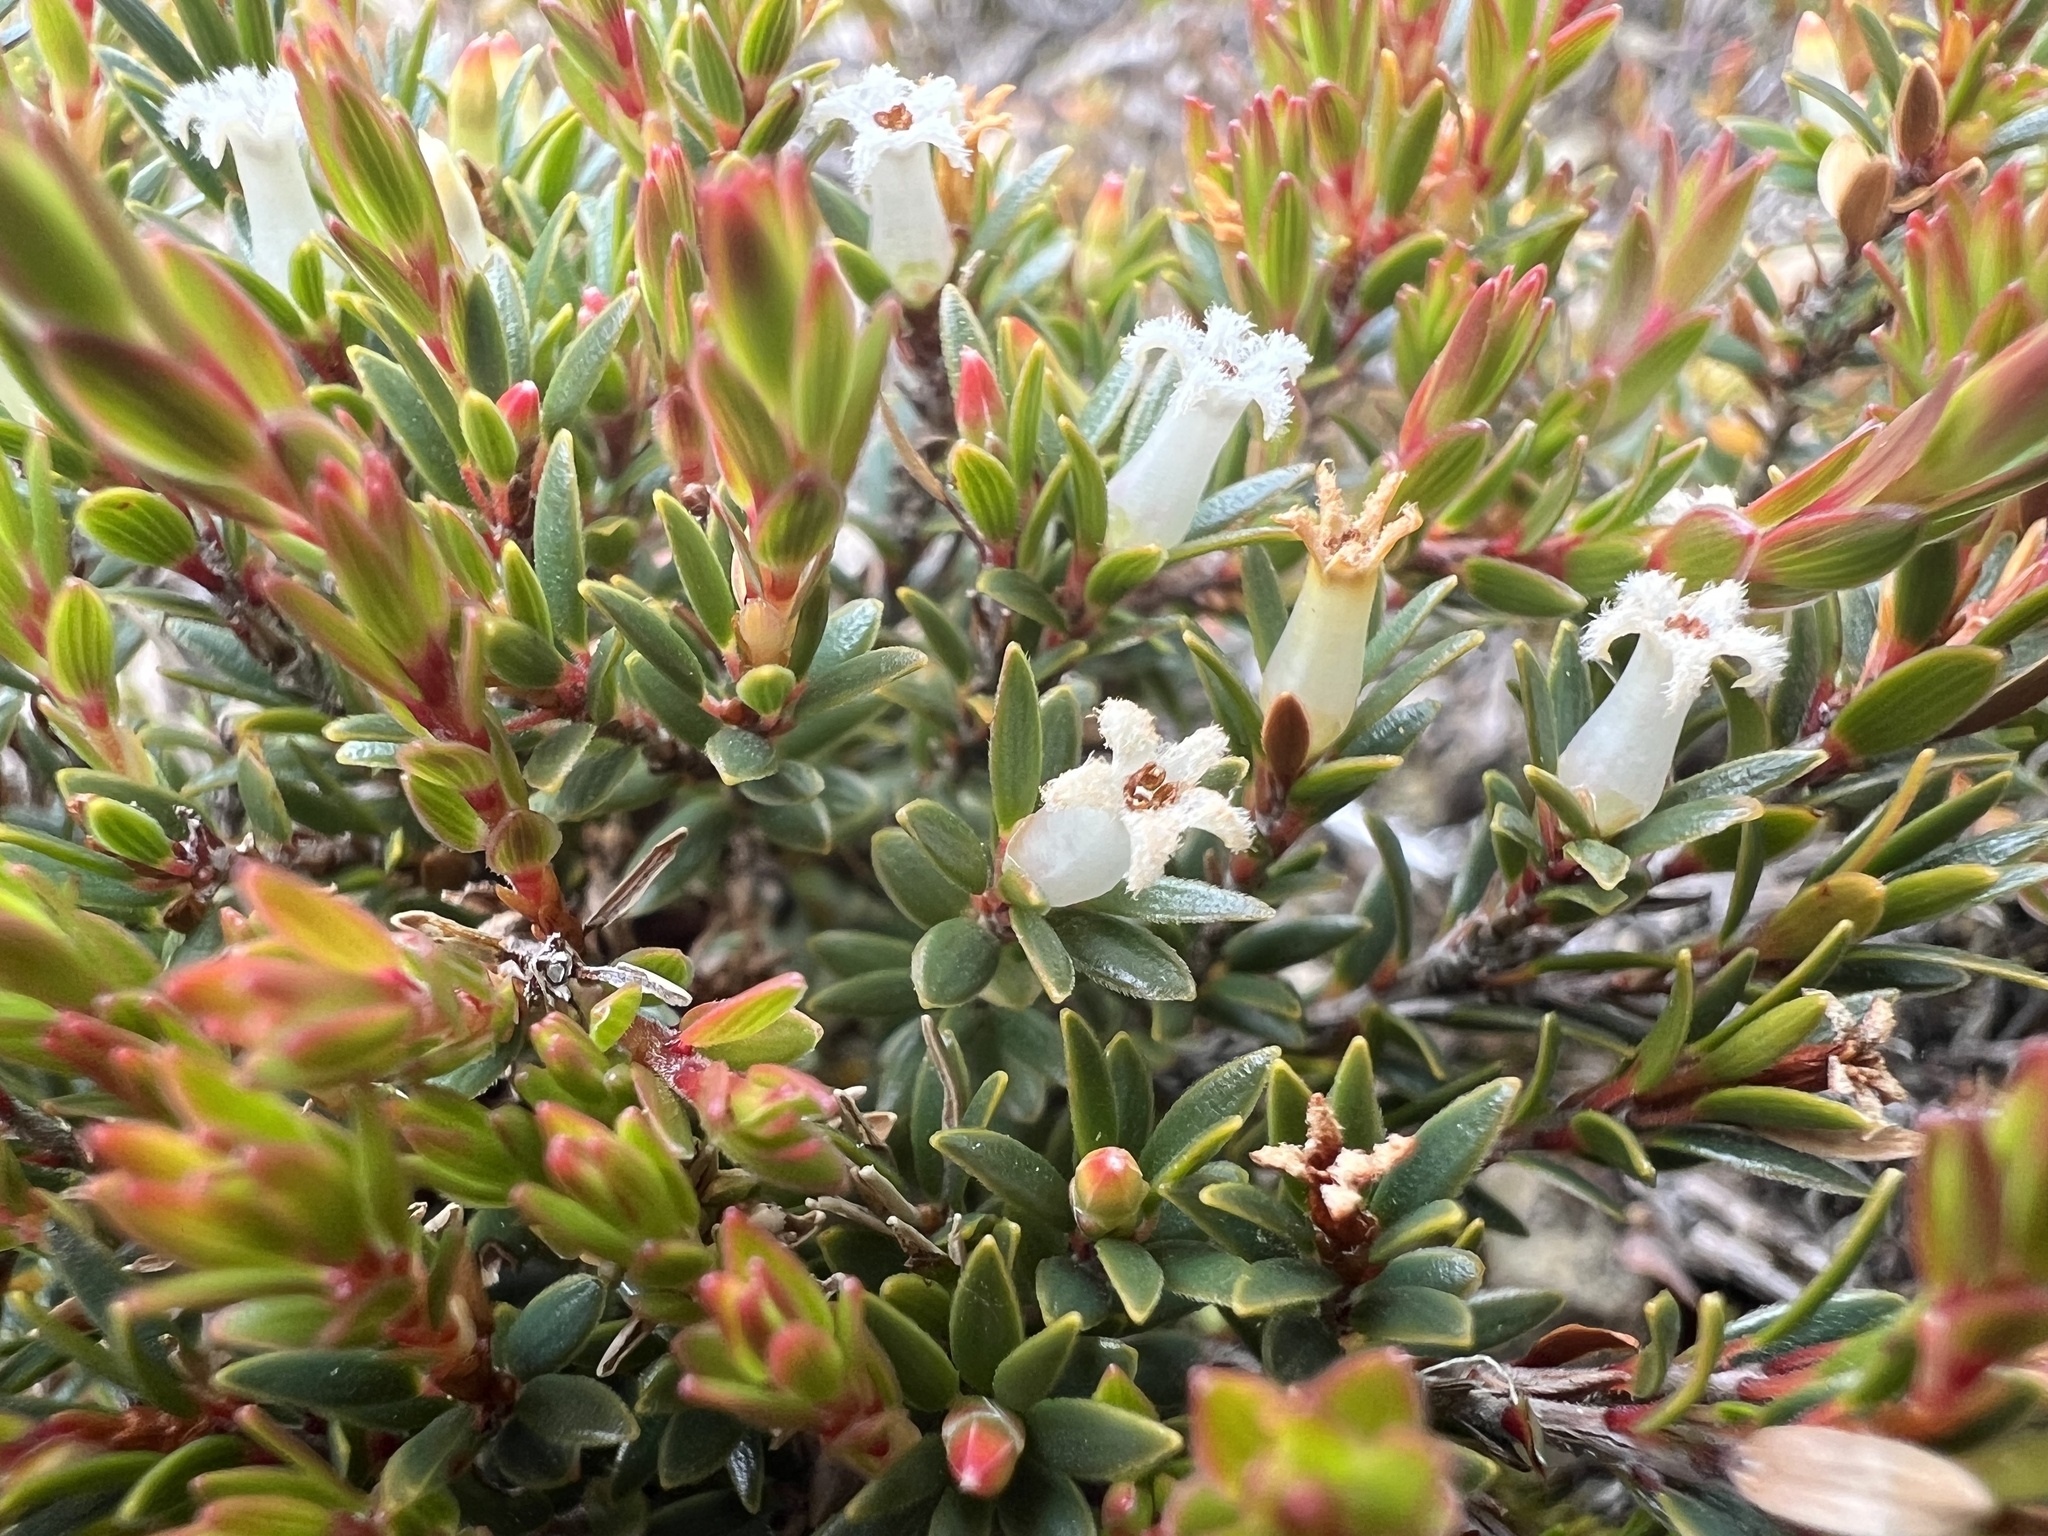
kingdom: Plantae
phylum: Tracheophyta
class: Magnoliopsida
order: Ericales
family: Ericaceae
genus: Pentachondra
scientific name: Pentachondra pumila
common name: Carpet-heath
